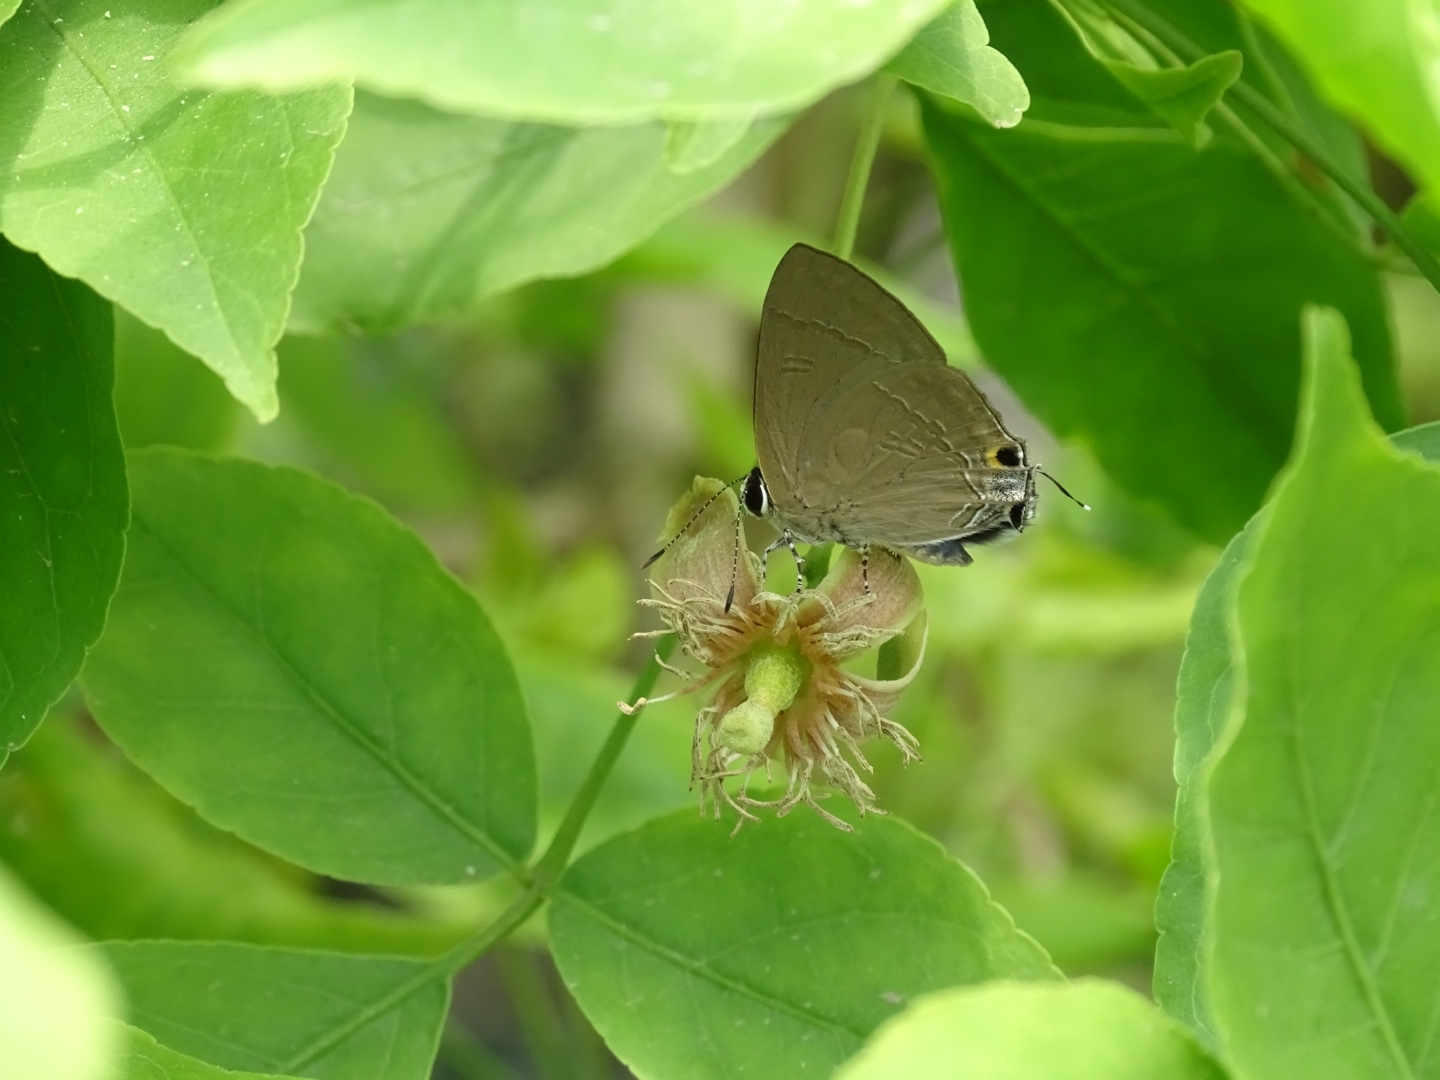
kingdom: Animalia
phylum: Arthropoda
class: Insecta
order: Lepidoptera
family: Lycaenidae
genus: Rapala
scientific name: Rapala manea
